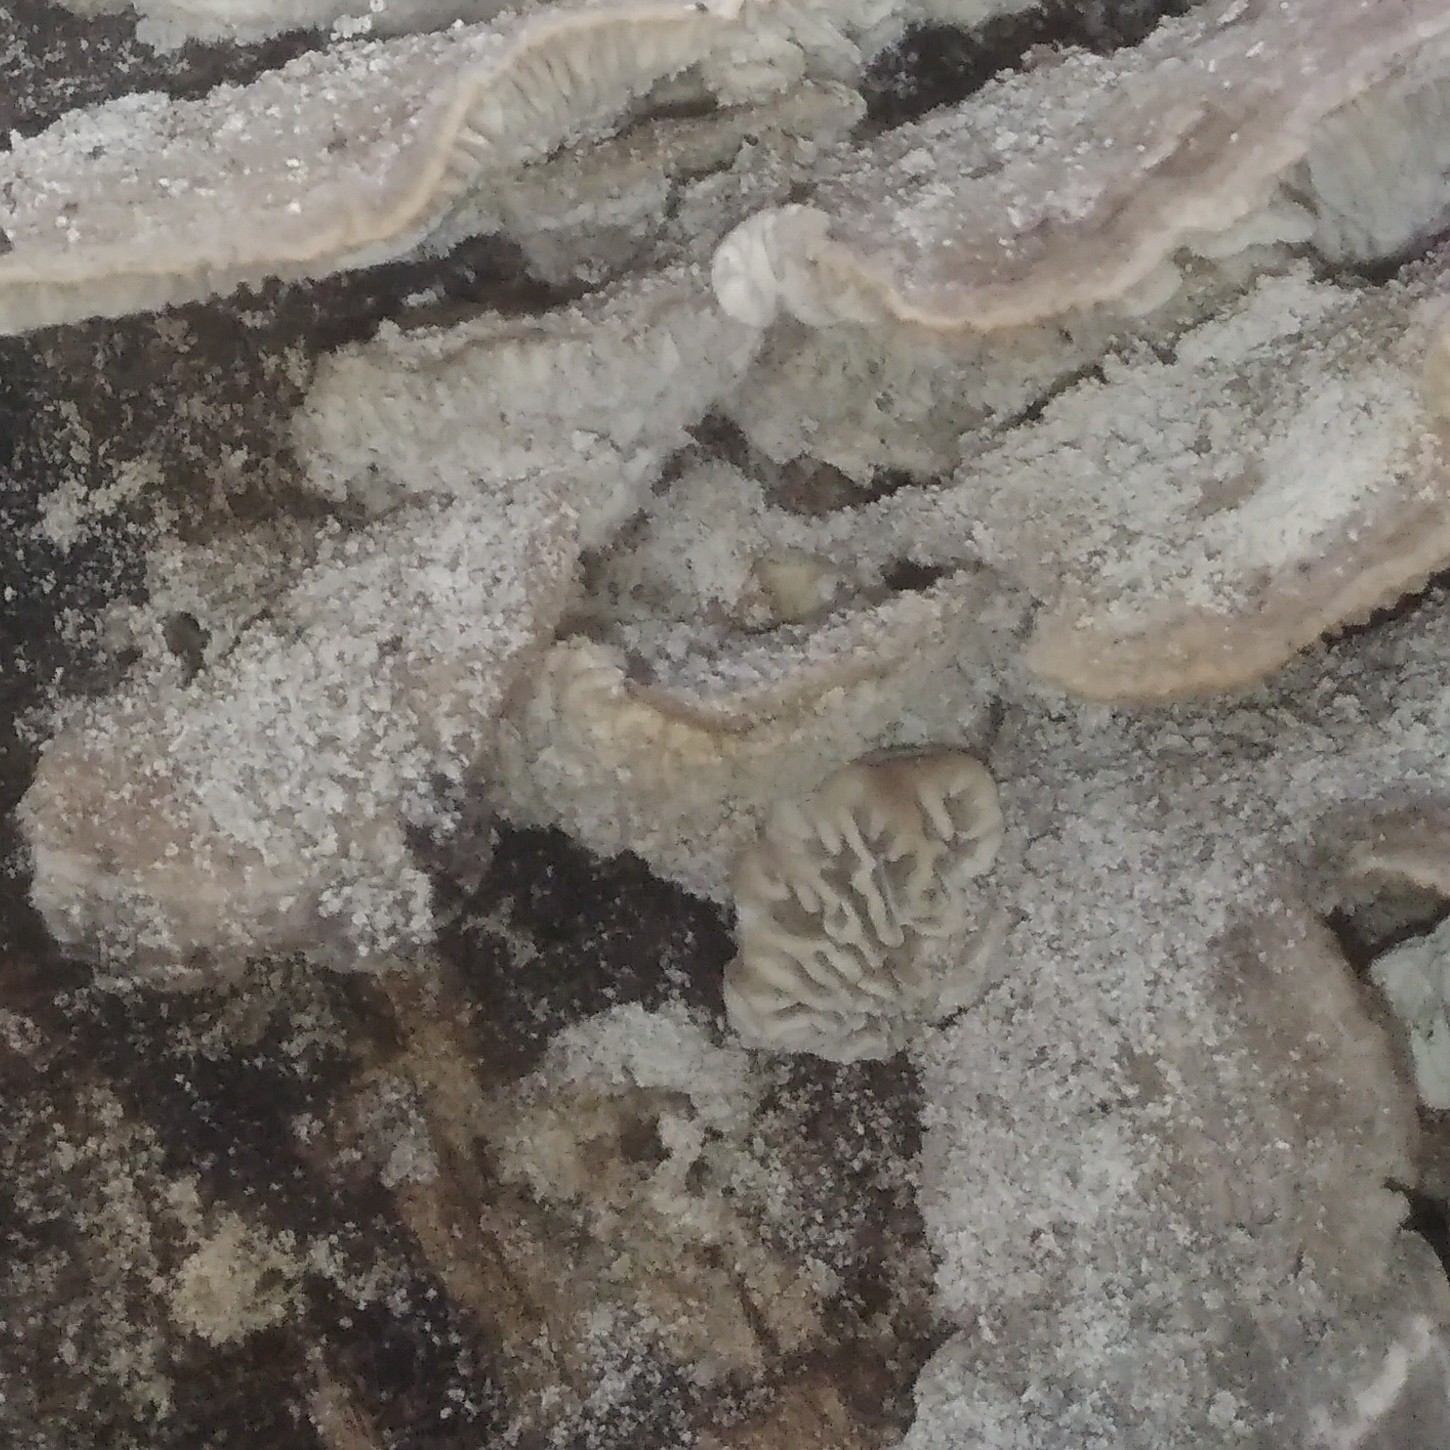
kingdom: Fungi
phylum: Basidiomycota
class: Agaricomycetes
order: Polyporales
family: Polyporaceae
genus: Lenzites
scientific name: Lenzites betulinus
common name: Birch mazegill
